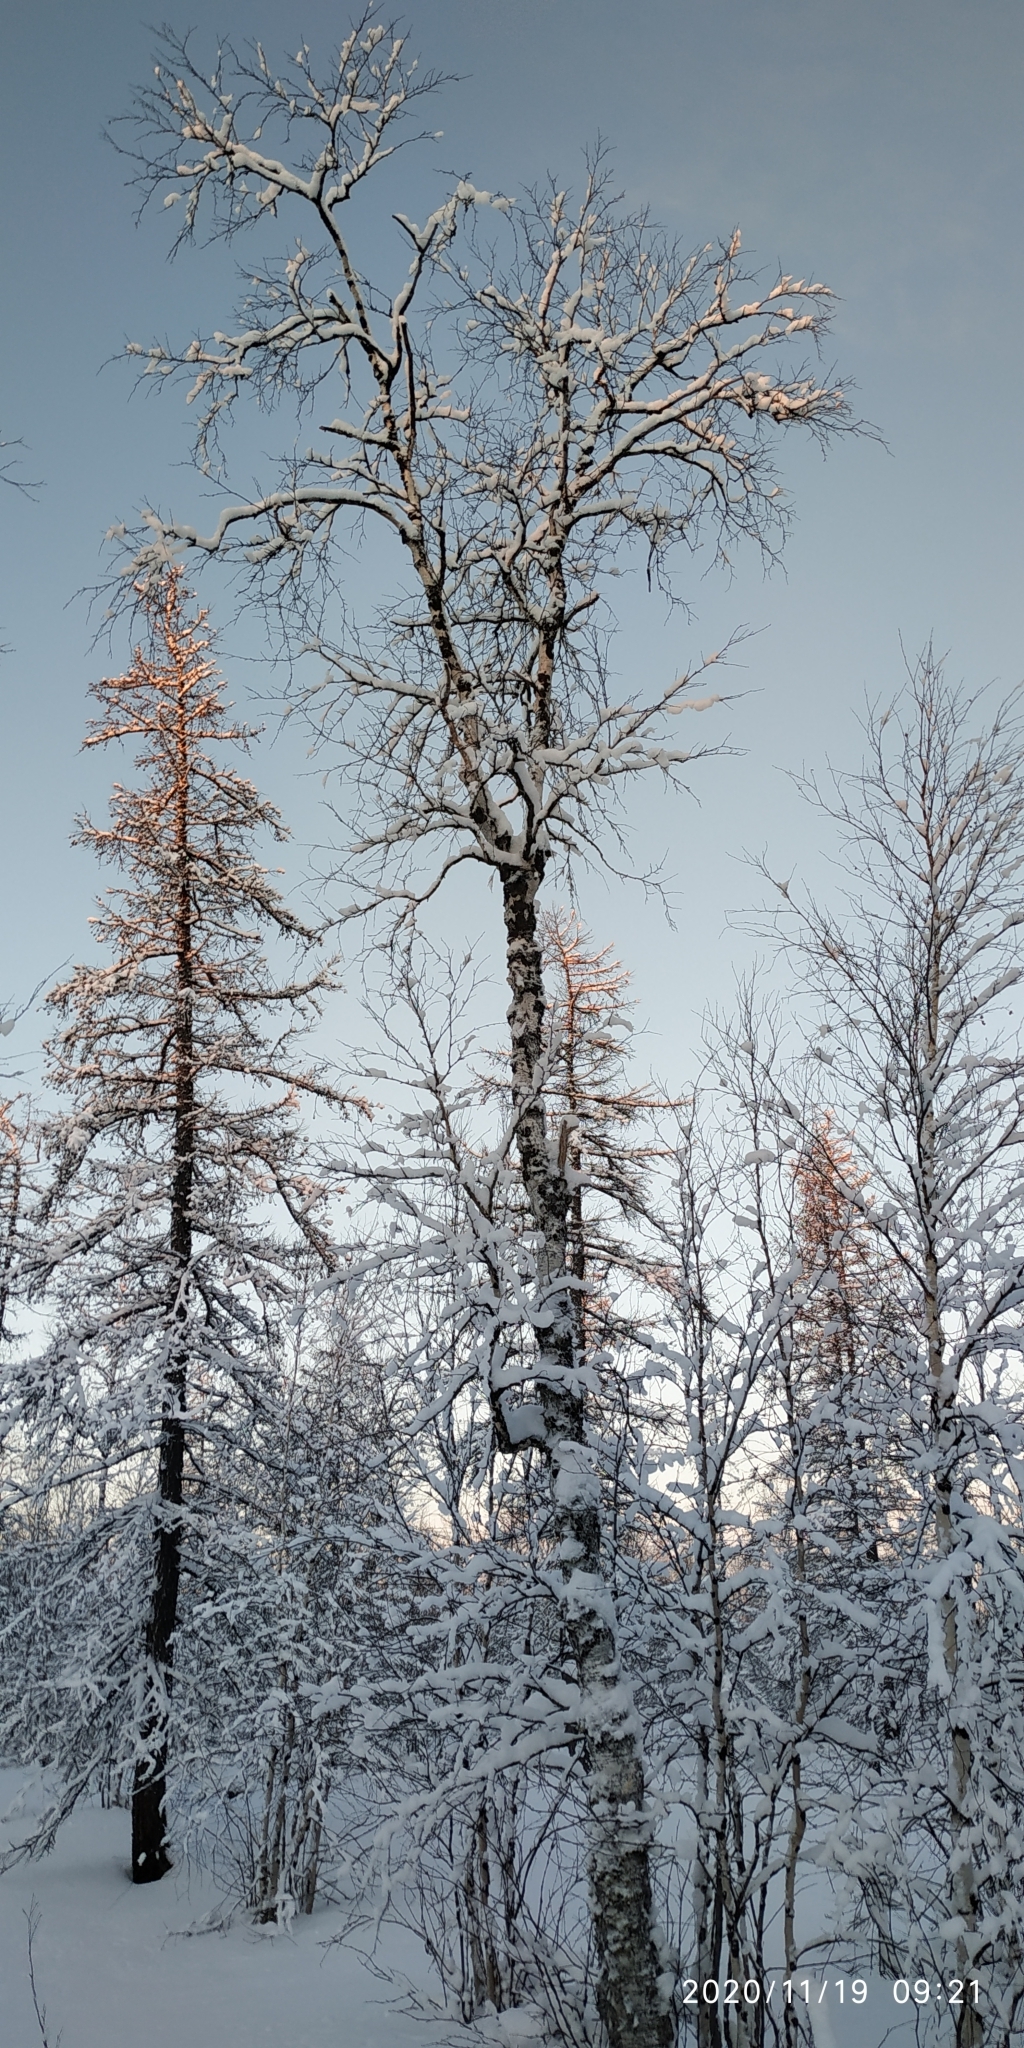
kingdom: Plantae
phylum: Tracheophyta
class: Magnoliopsida
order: Fagales
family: Betulaceae
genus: Betula
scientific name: Betula pubescens
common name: Downy birch
